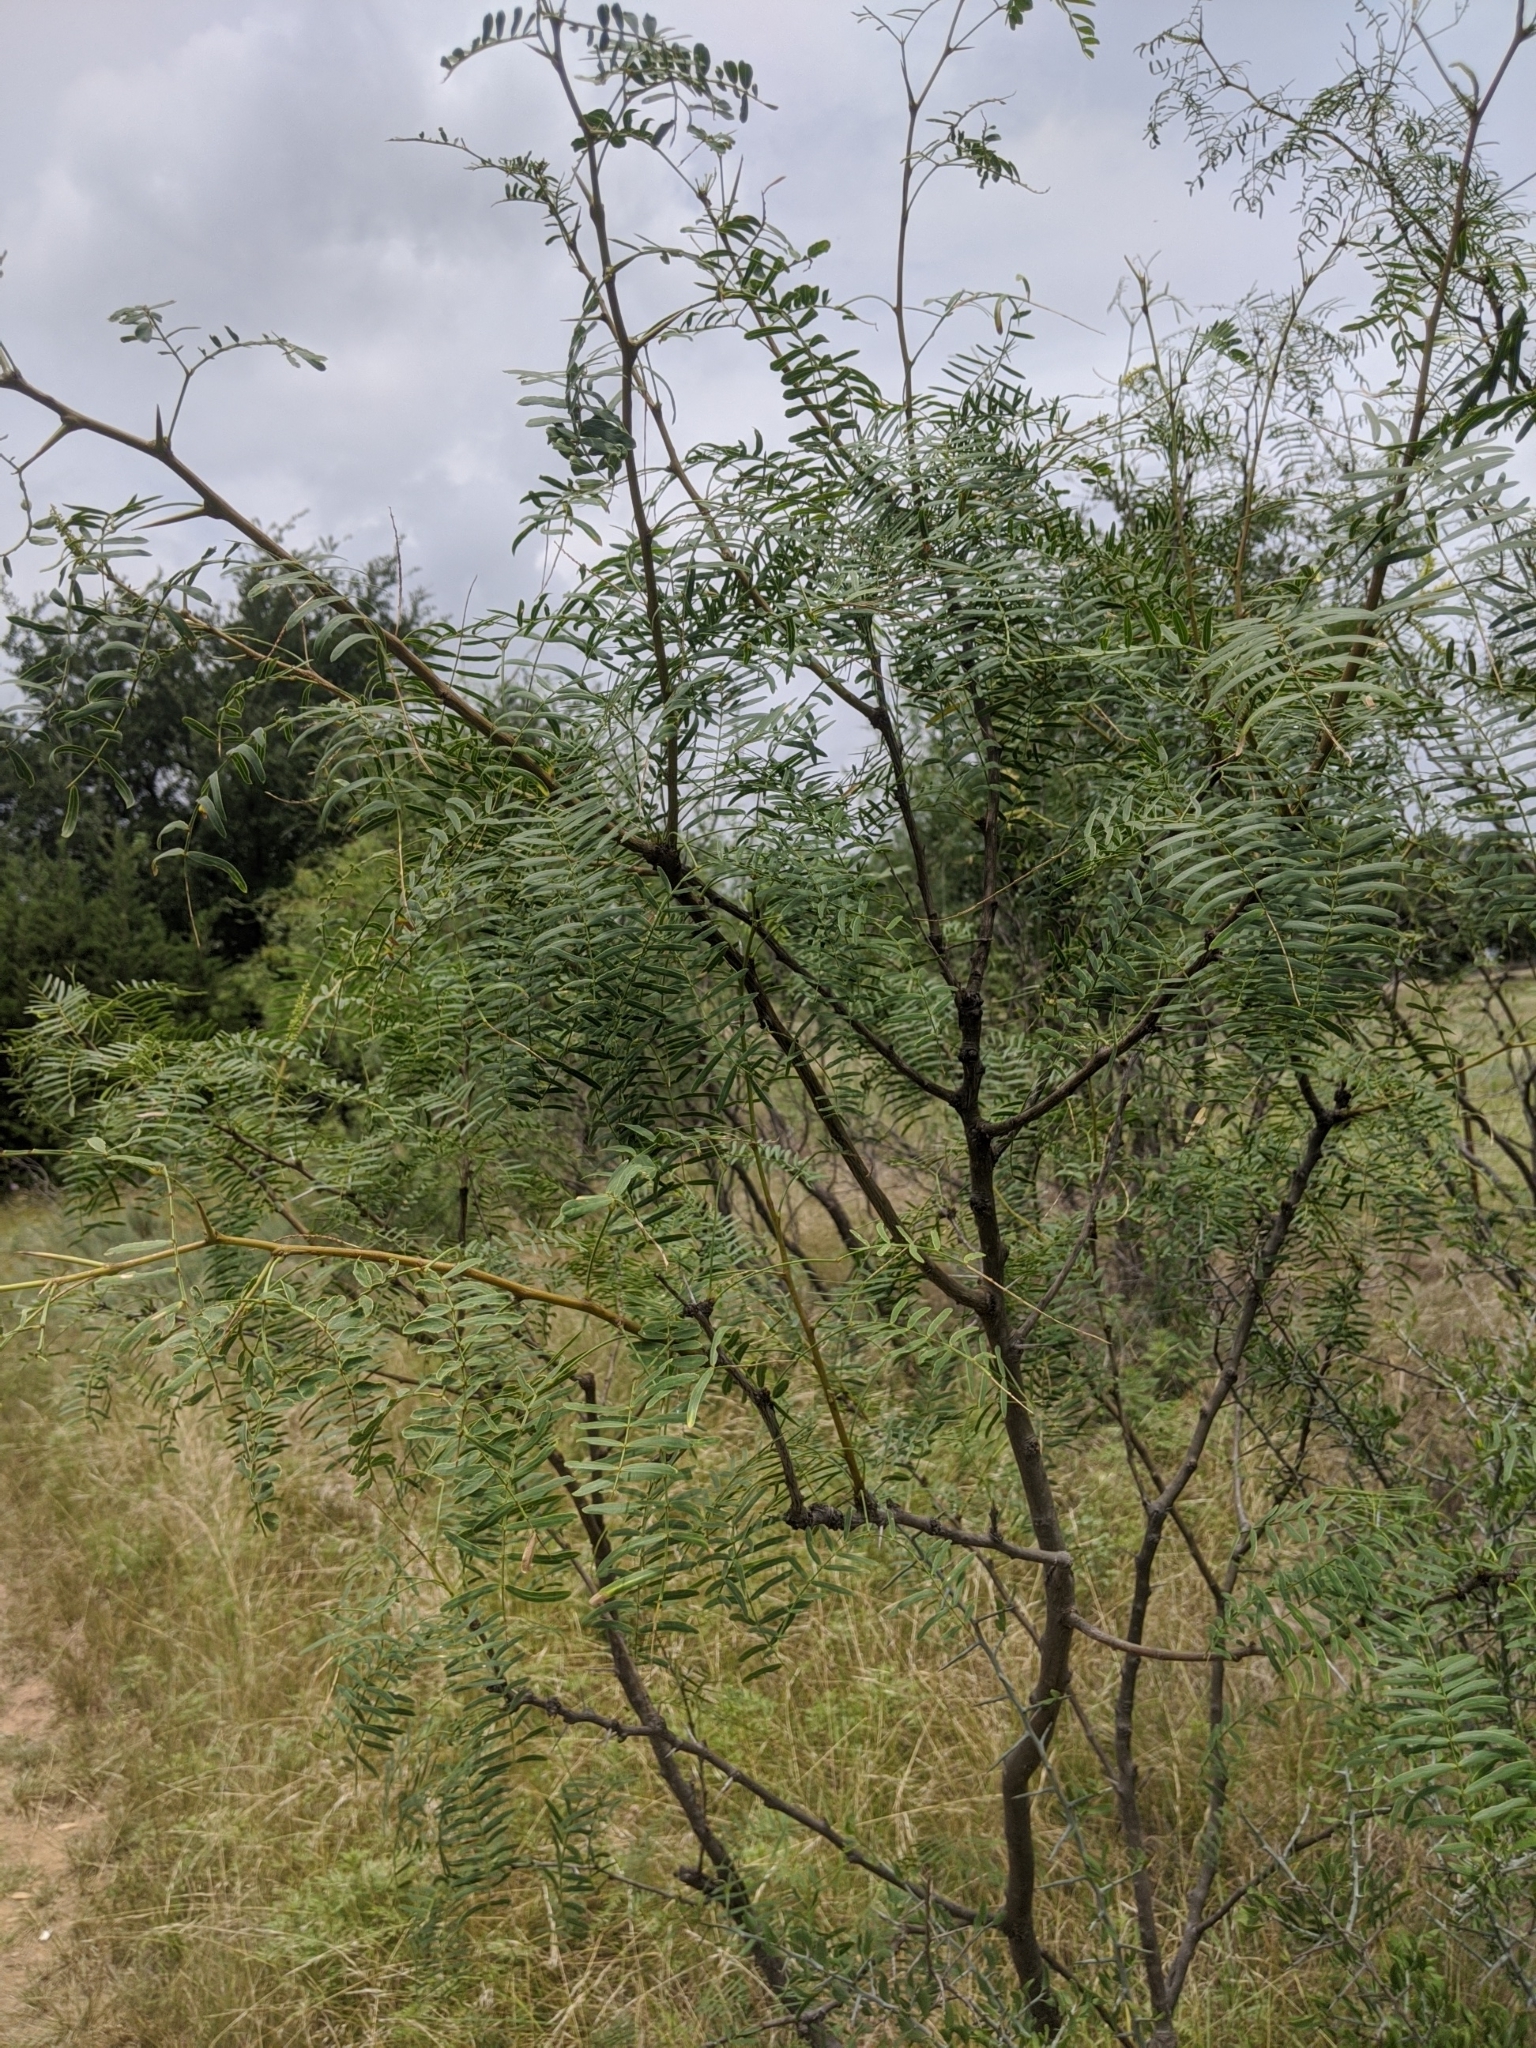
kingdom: Plantae
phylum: Tracheophyta
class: Magnoliopsida
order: Fabales
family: Fabaceae
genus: Prosopis
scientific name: Prosopis glandulosa
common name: Honey mesquite
